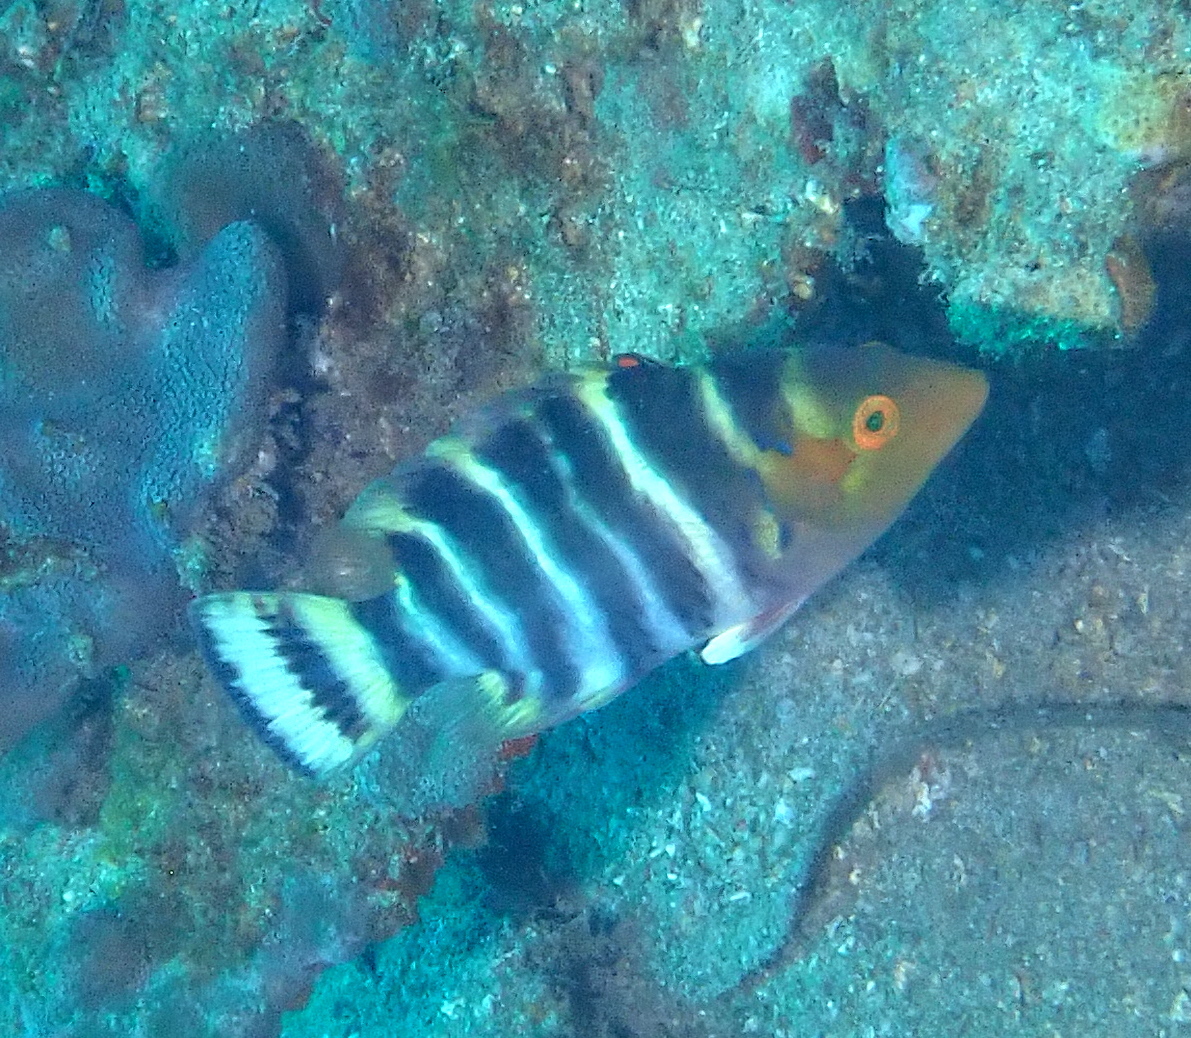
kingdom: Animalia
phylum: Chordata
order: Perciformes
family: Labridae
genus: Cheilinus
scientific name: Cheilinus fasciatus
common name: Red-breasted wrasse
